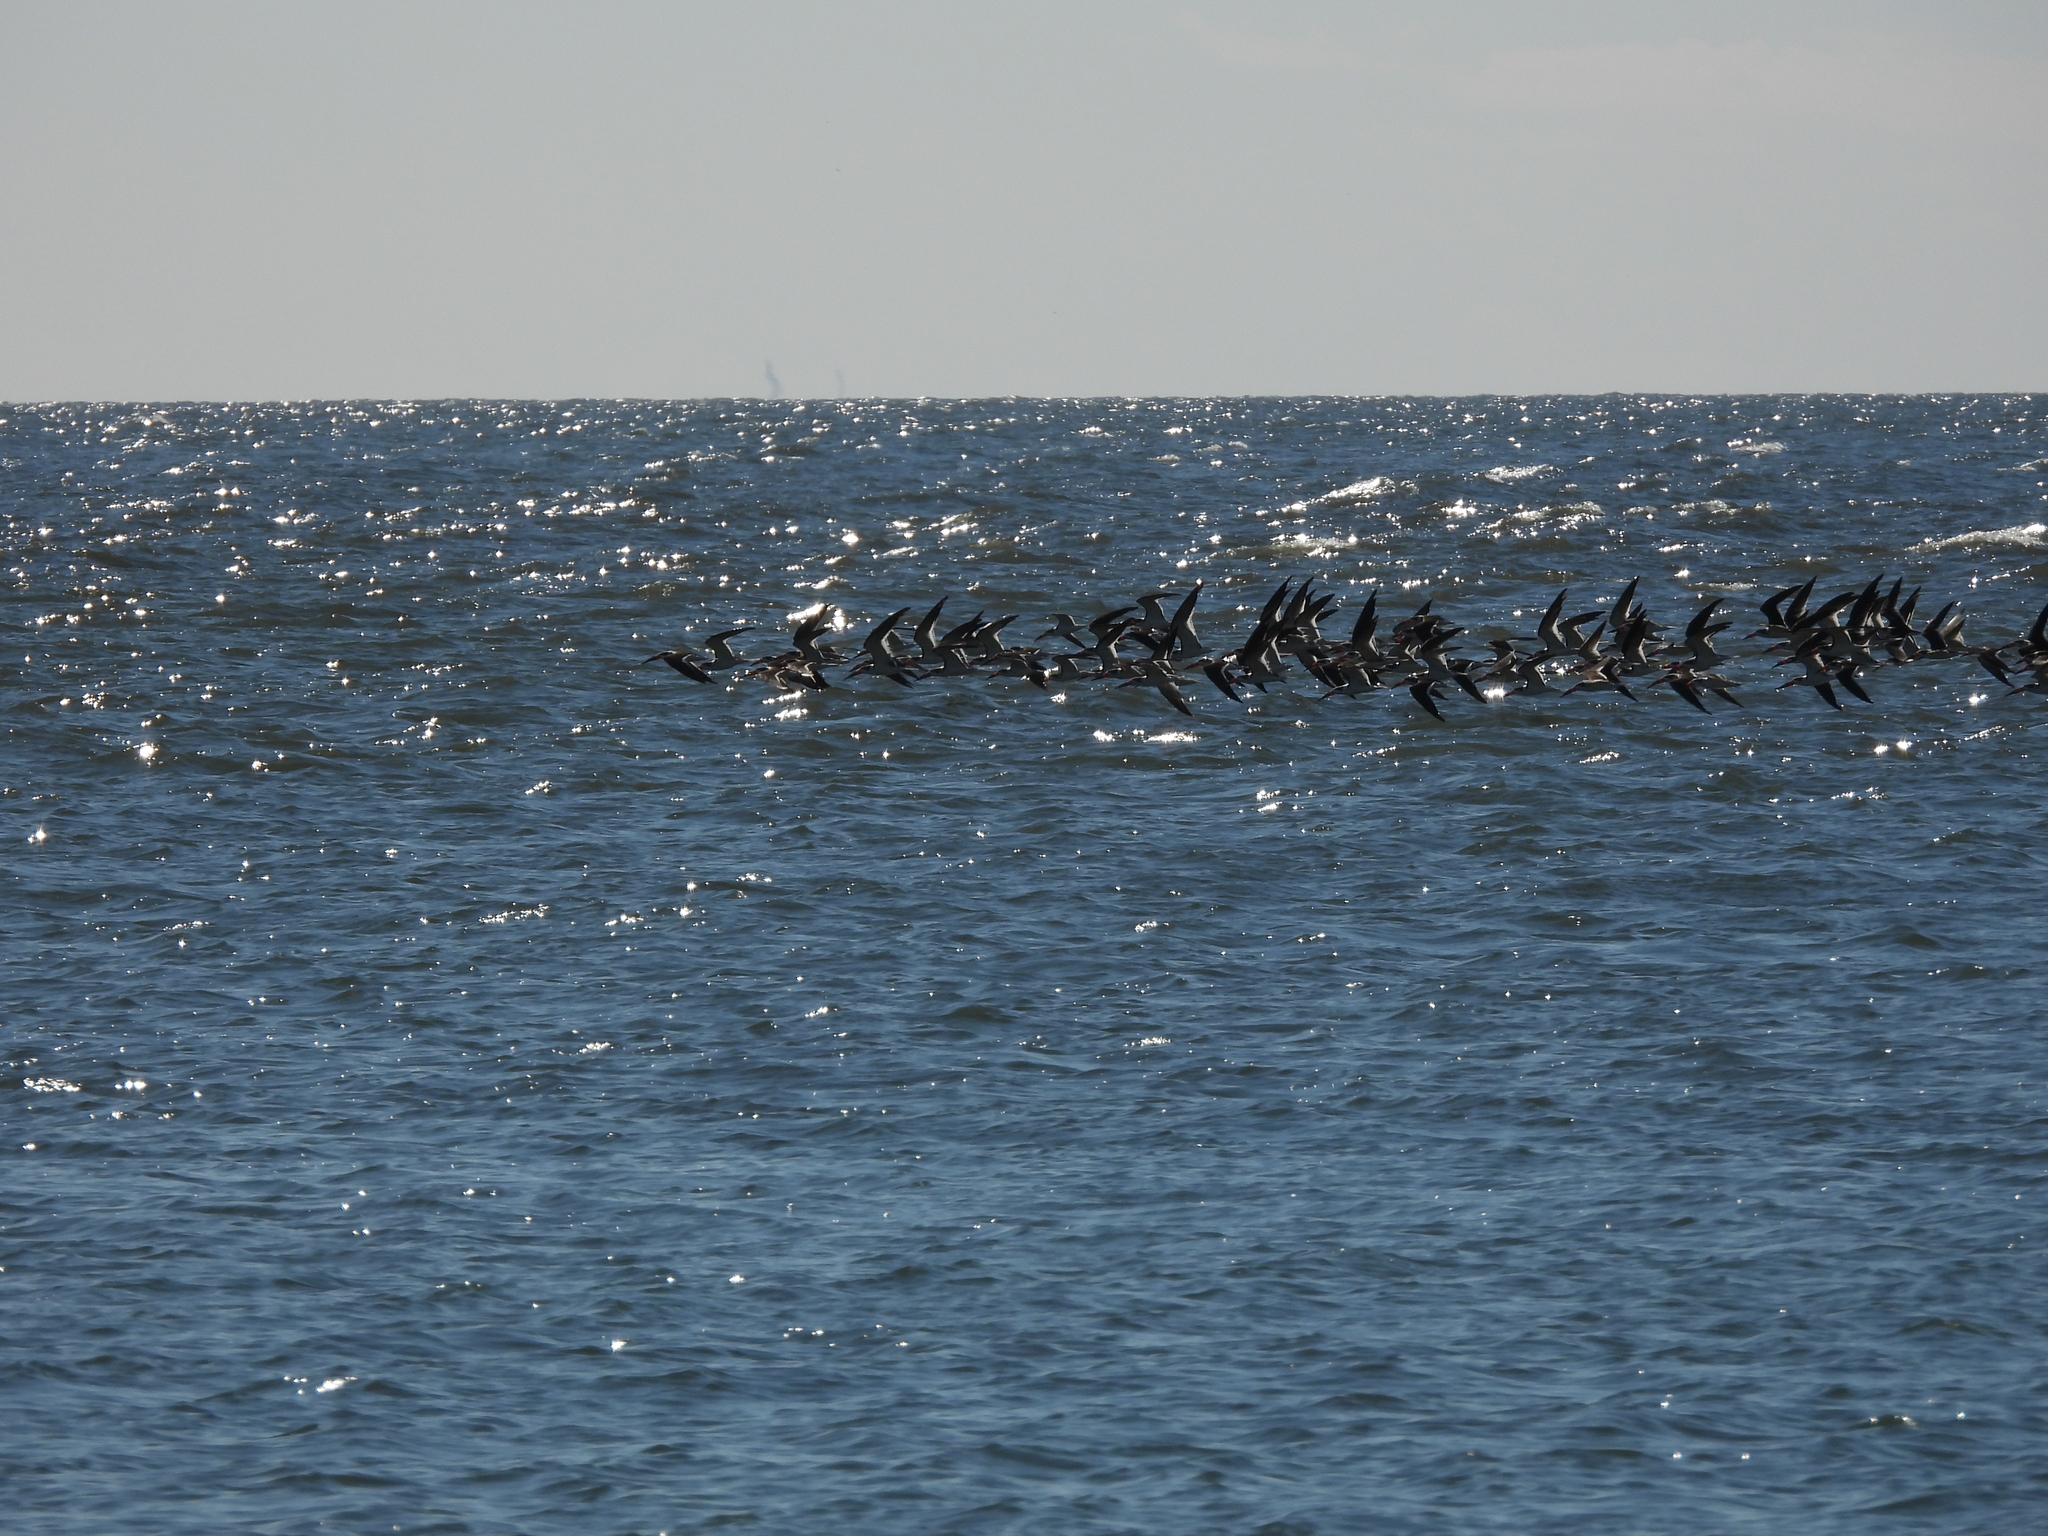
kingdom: Animalia
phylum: Chordata
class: Aves
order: Charadriiformes
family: Laridae
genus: Rynchops
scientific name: Rynchops niger
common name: Black skimmer
